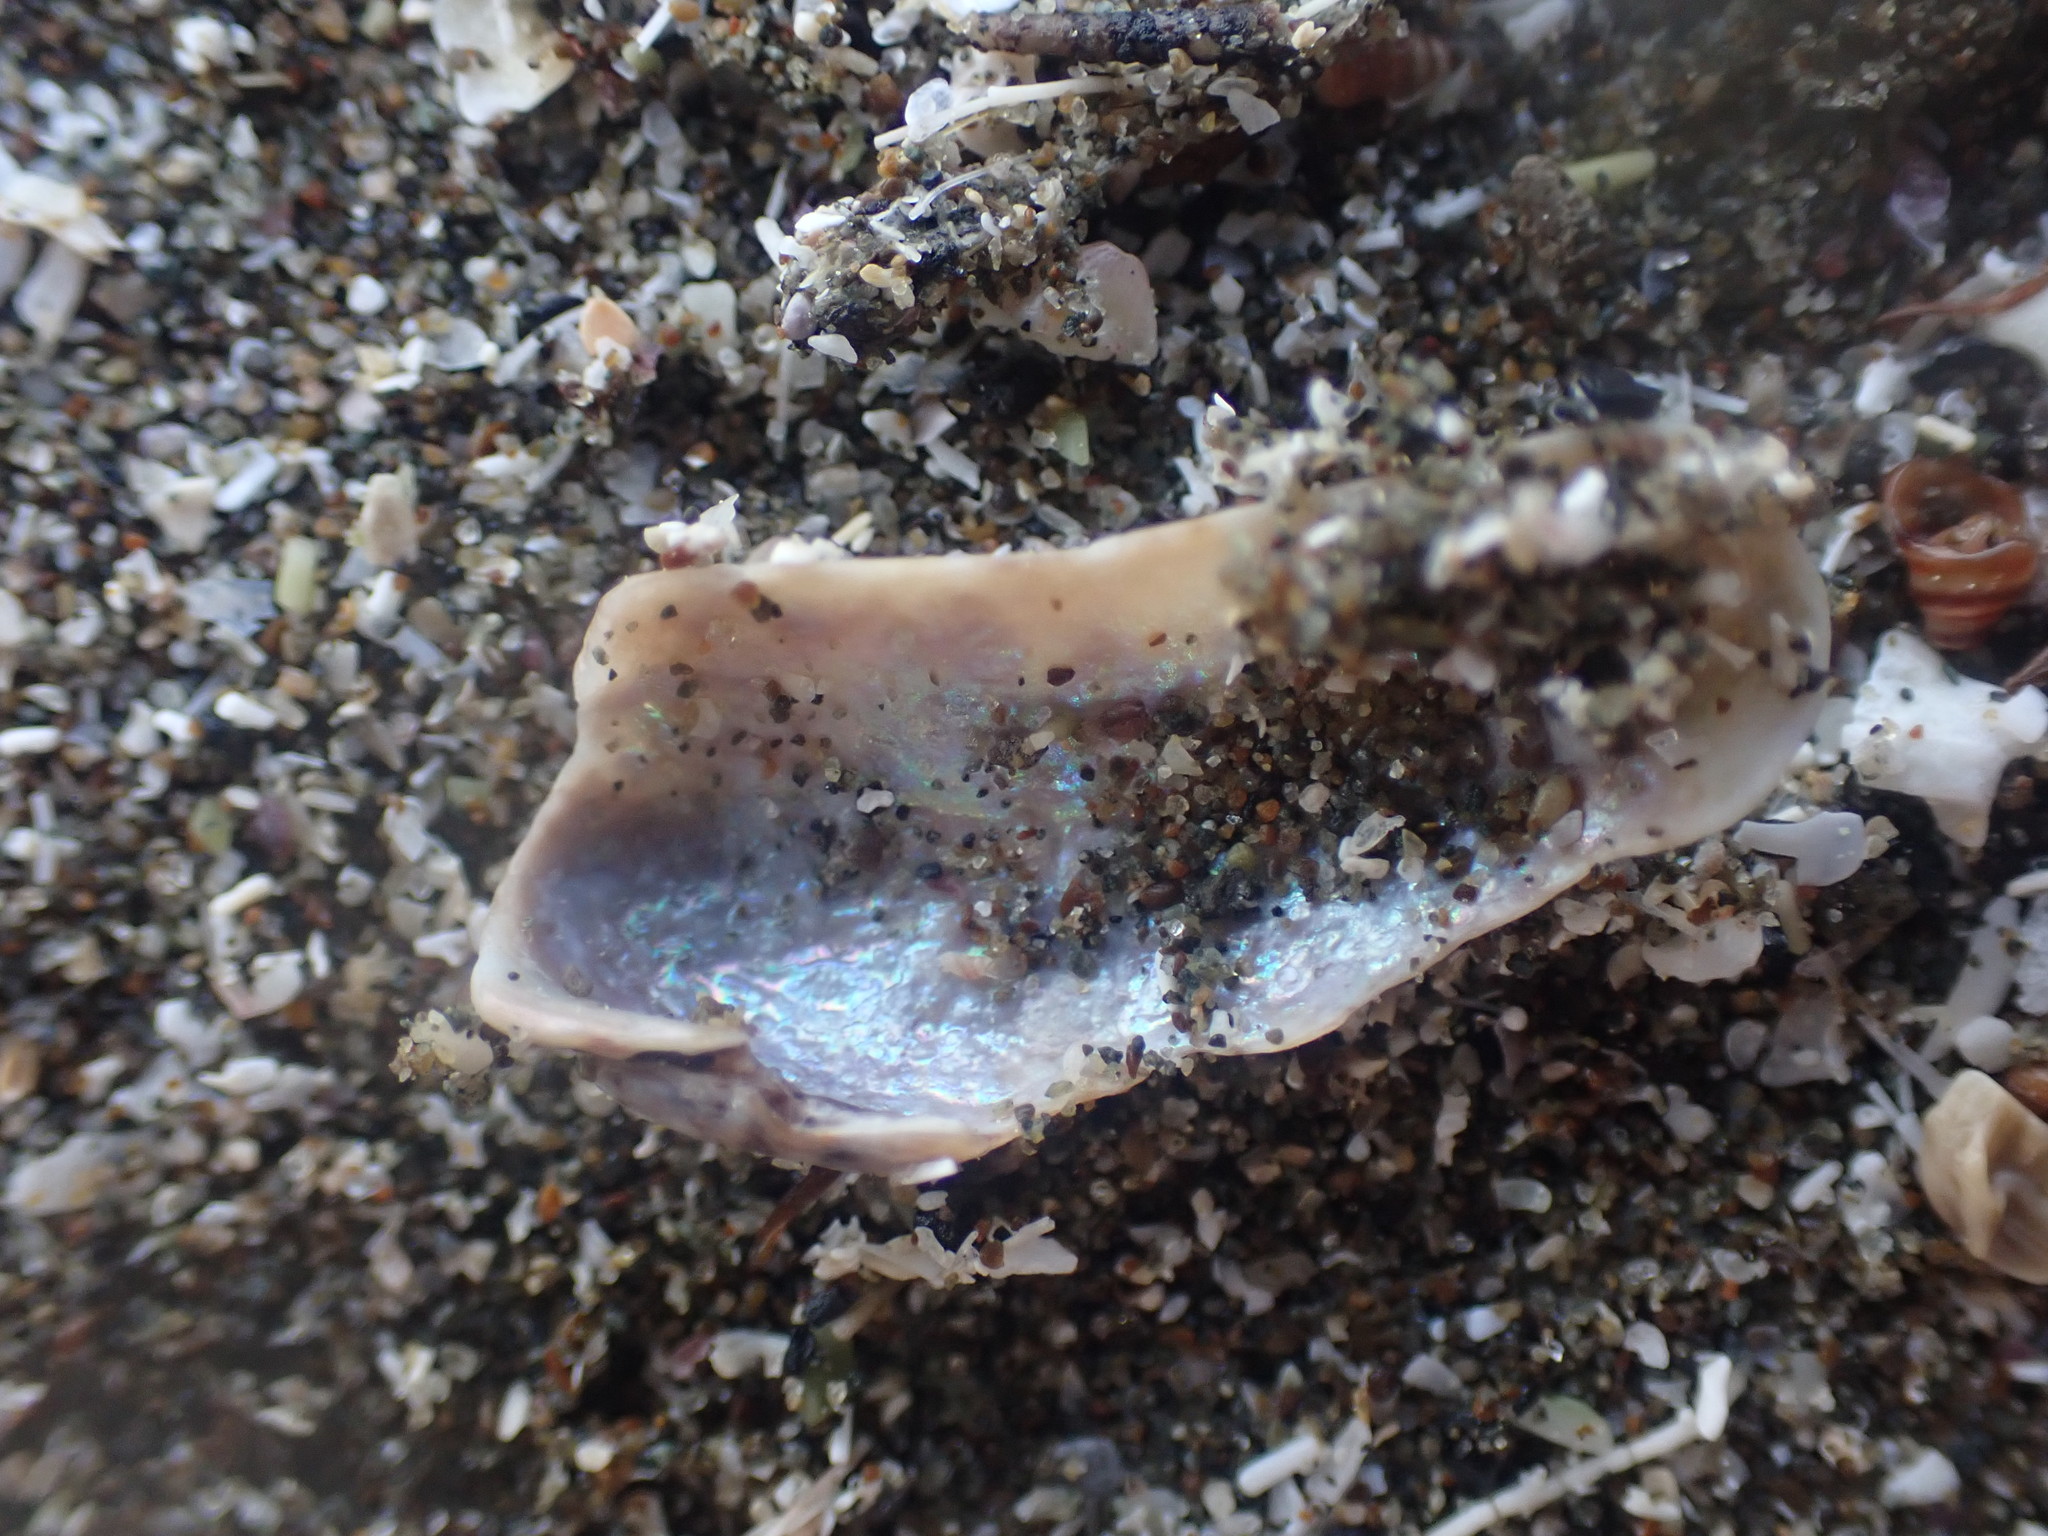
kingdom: Animalia
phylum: Mollusca
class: Bivalvia
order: Mytilida
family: Mytilidae
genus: Zelithophaga
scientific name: Zelithophaga truncata
